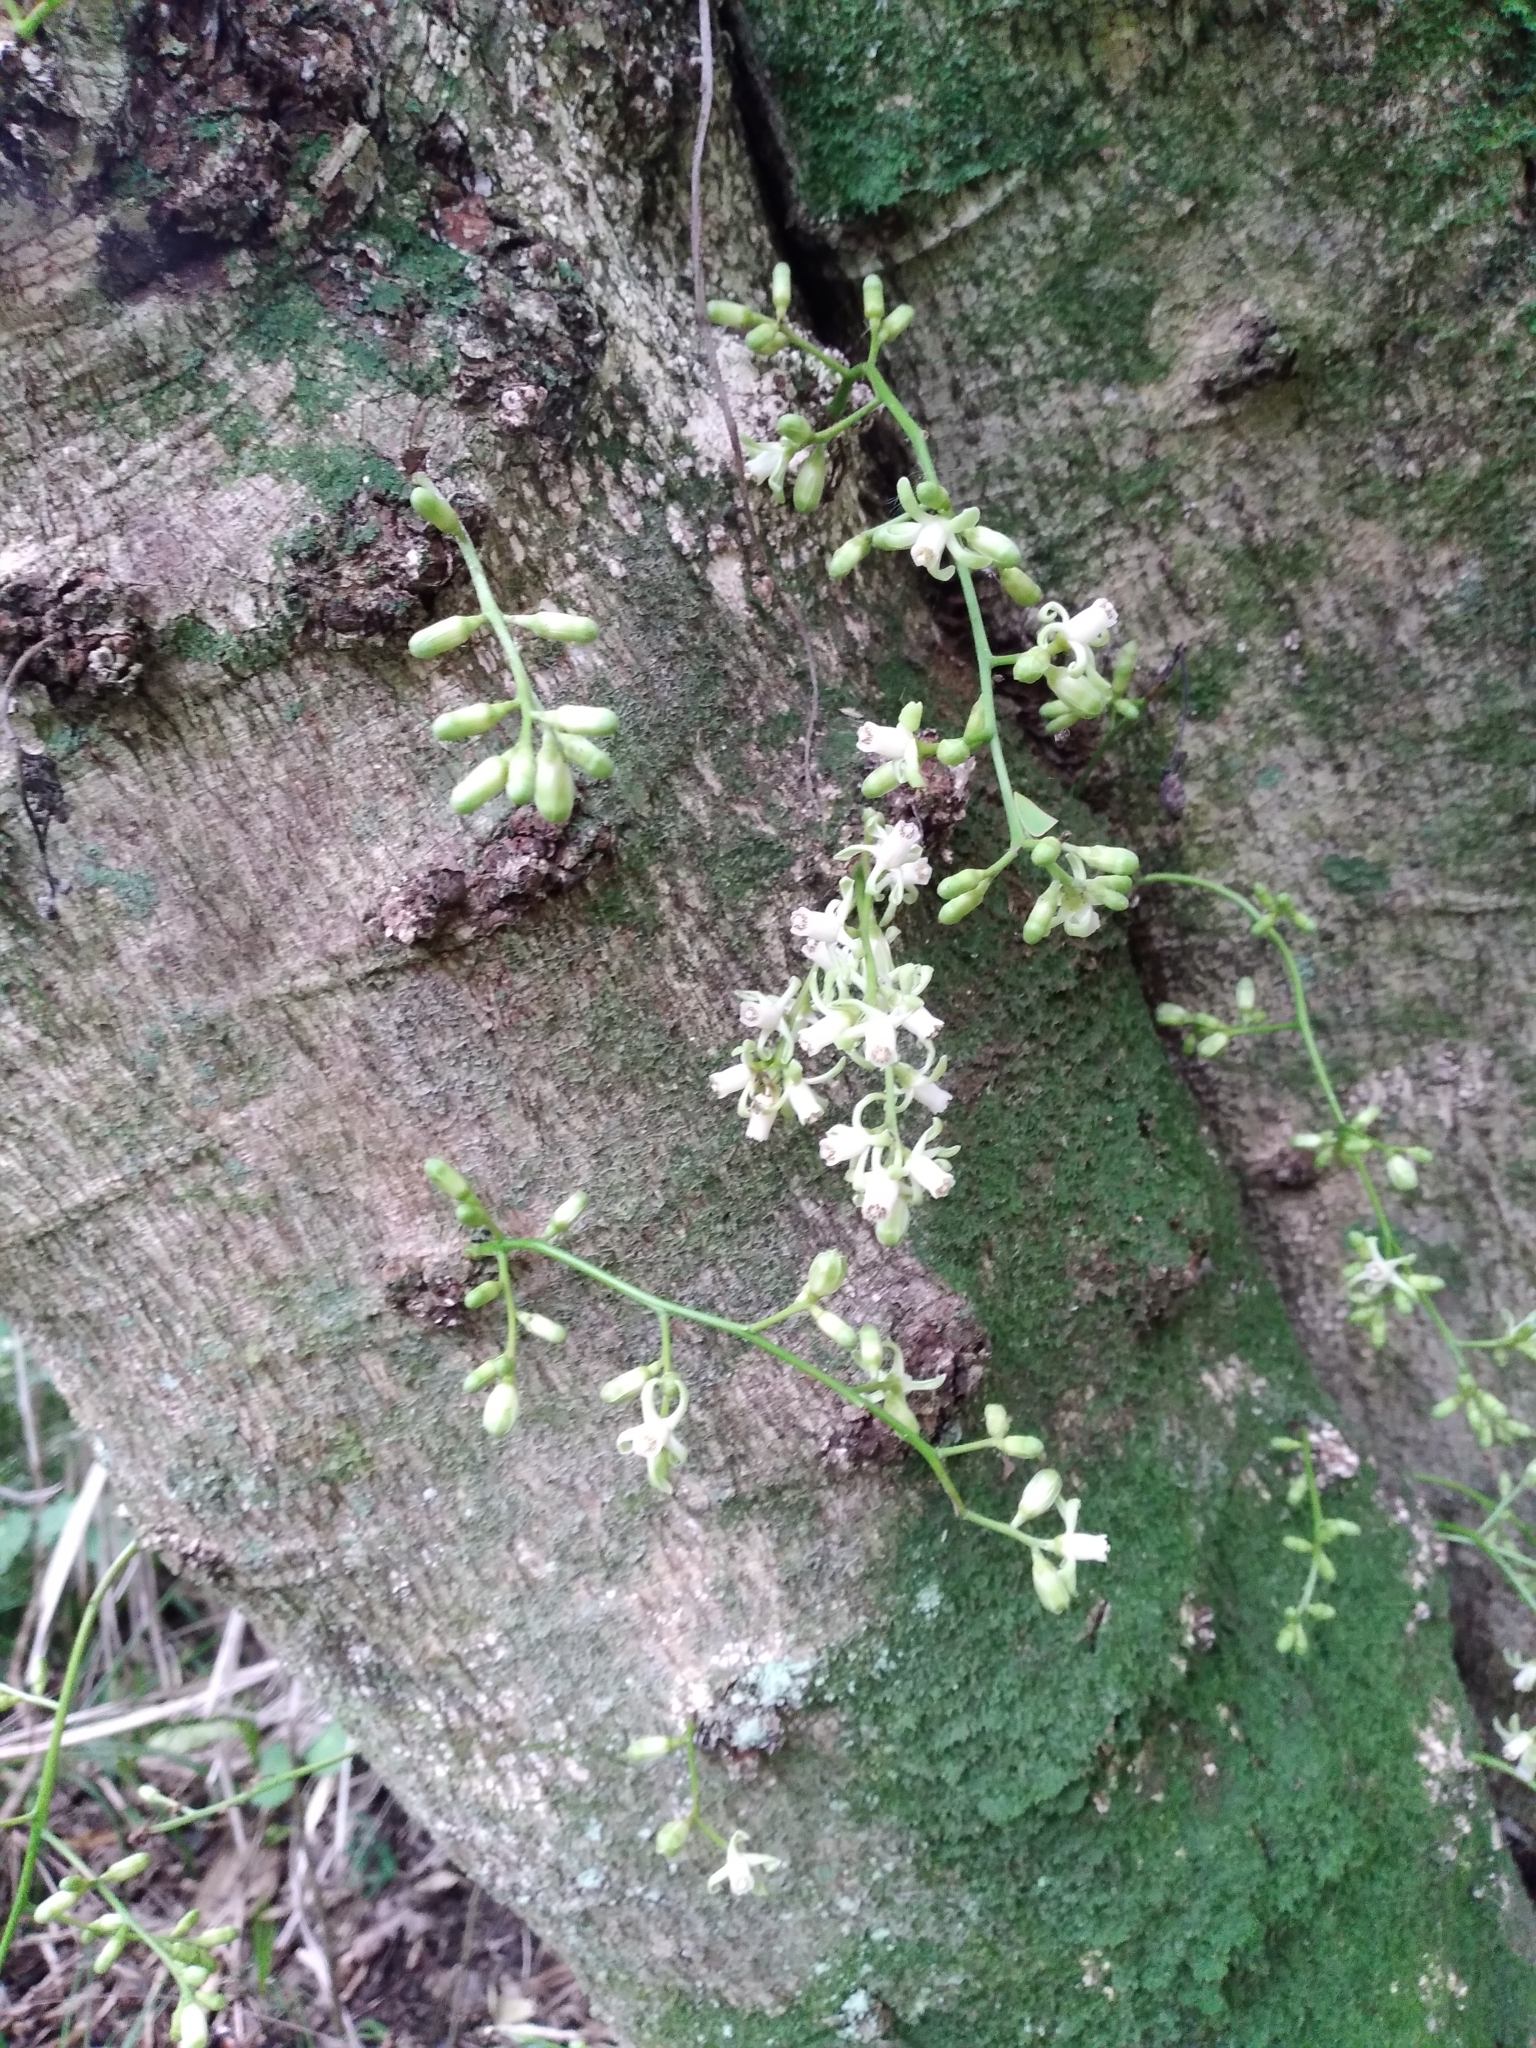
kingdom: Plantae
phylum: Tracheophyta
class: Magnoliopsida
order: Sapindales
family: Meliaceae
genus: Didymocheton
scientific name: Didymocheton spectabilis
